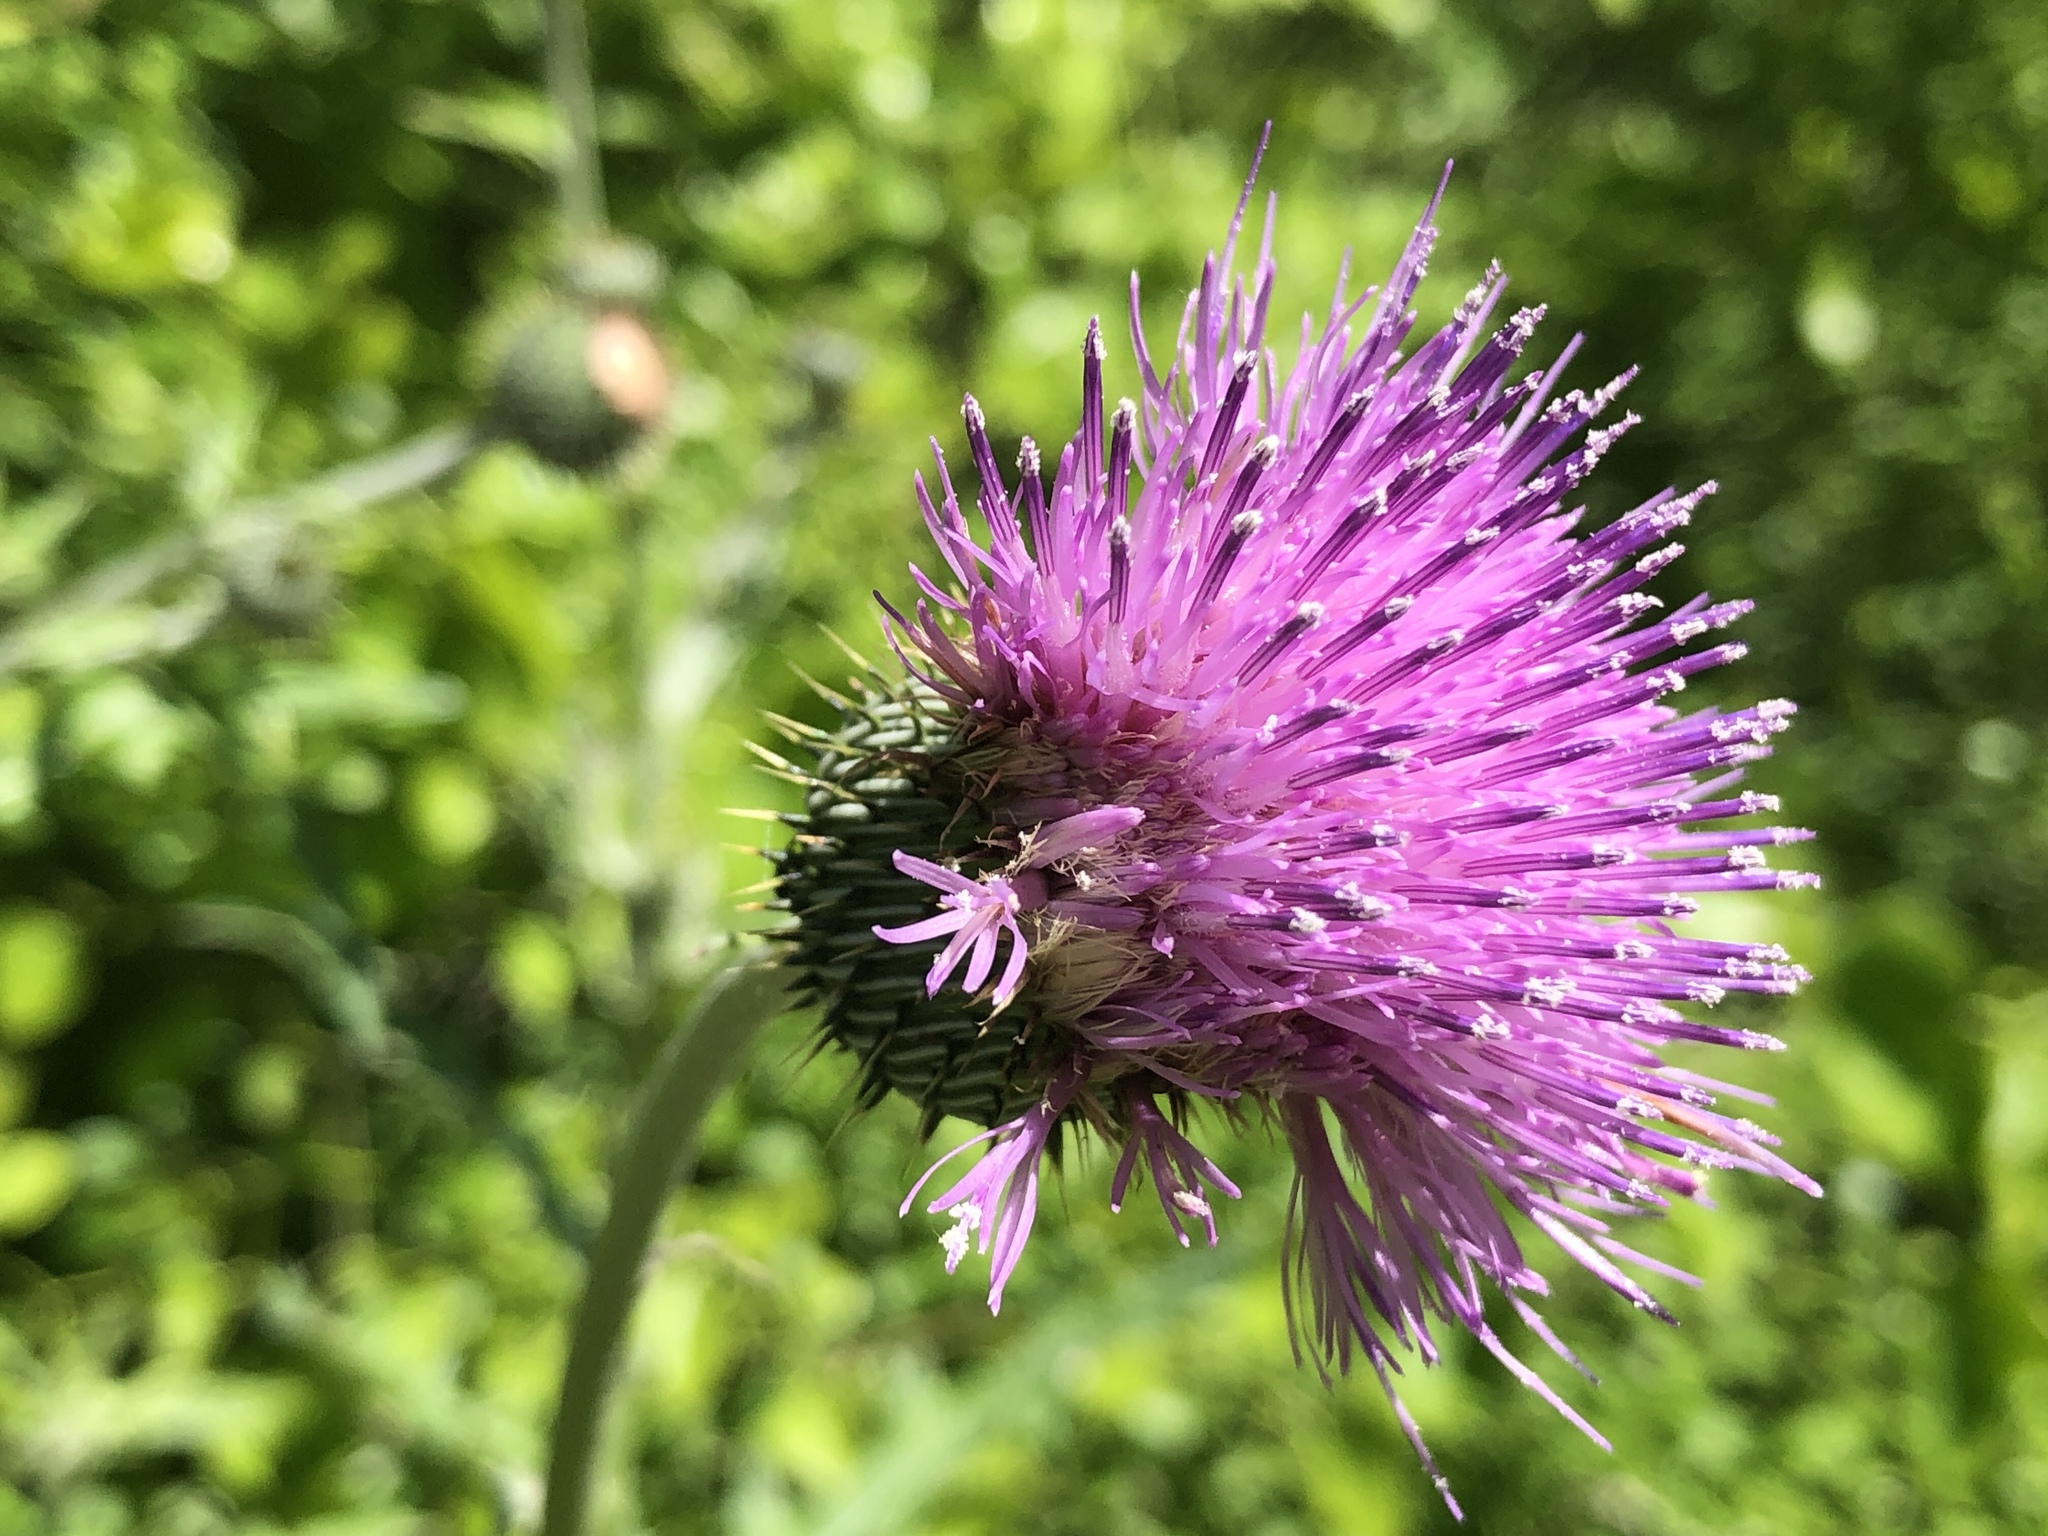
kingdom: Plantae
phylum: Tracheophyta
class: Magnoliopsida
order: Asterales
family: Asteraceae
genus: Cirsium
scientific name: Cirsium texanum
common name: Texas purple thistle
